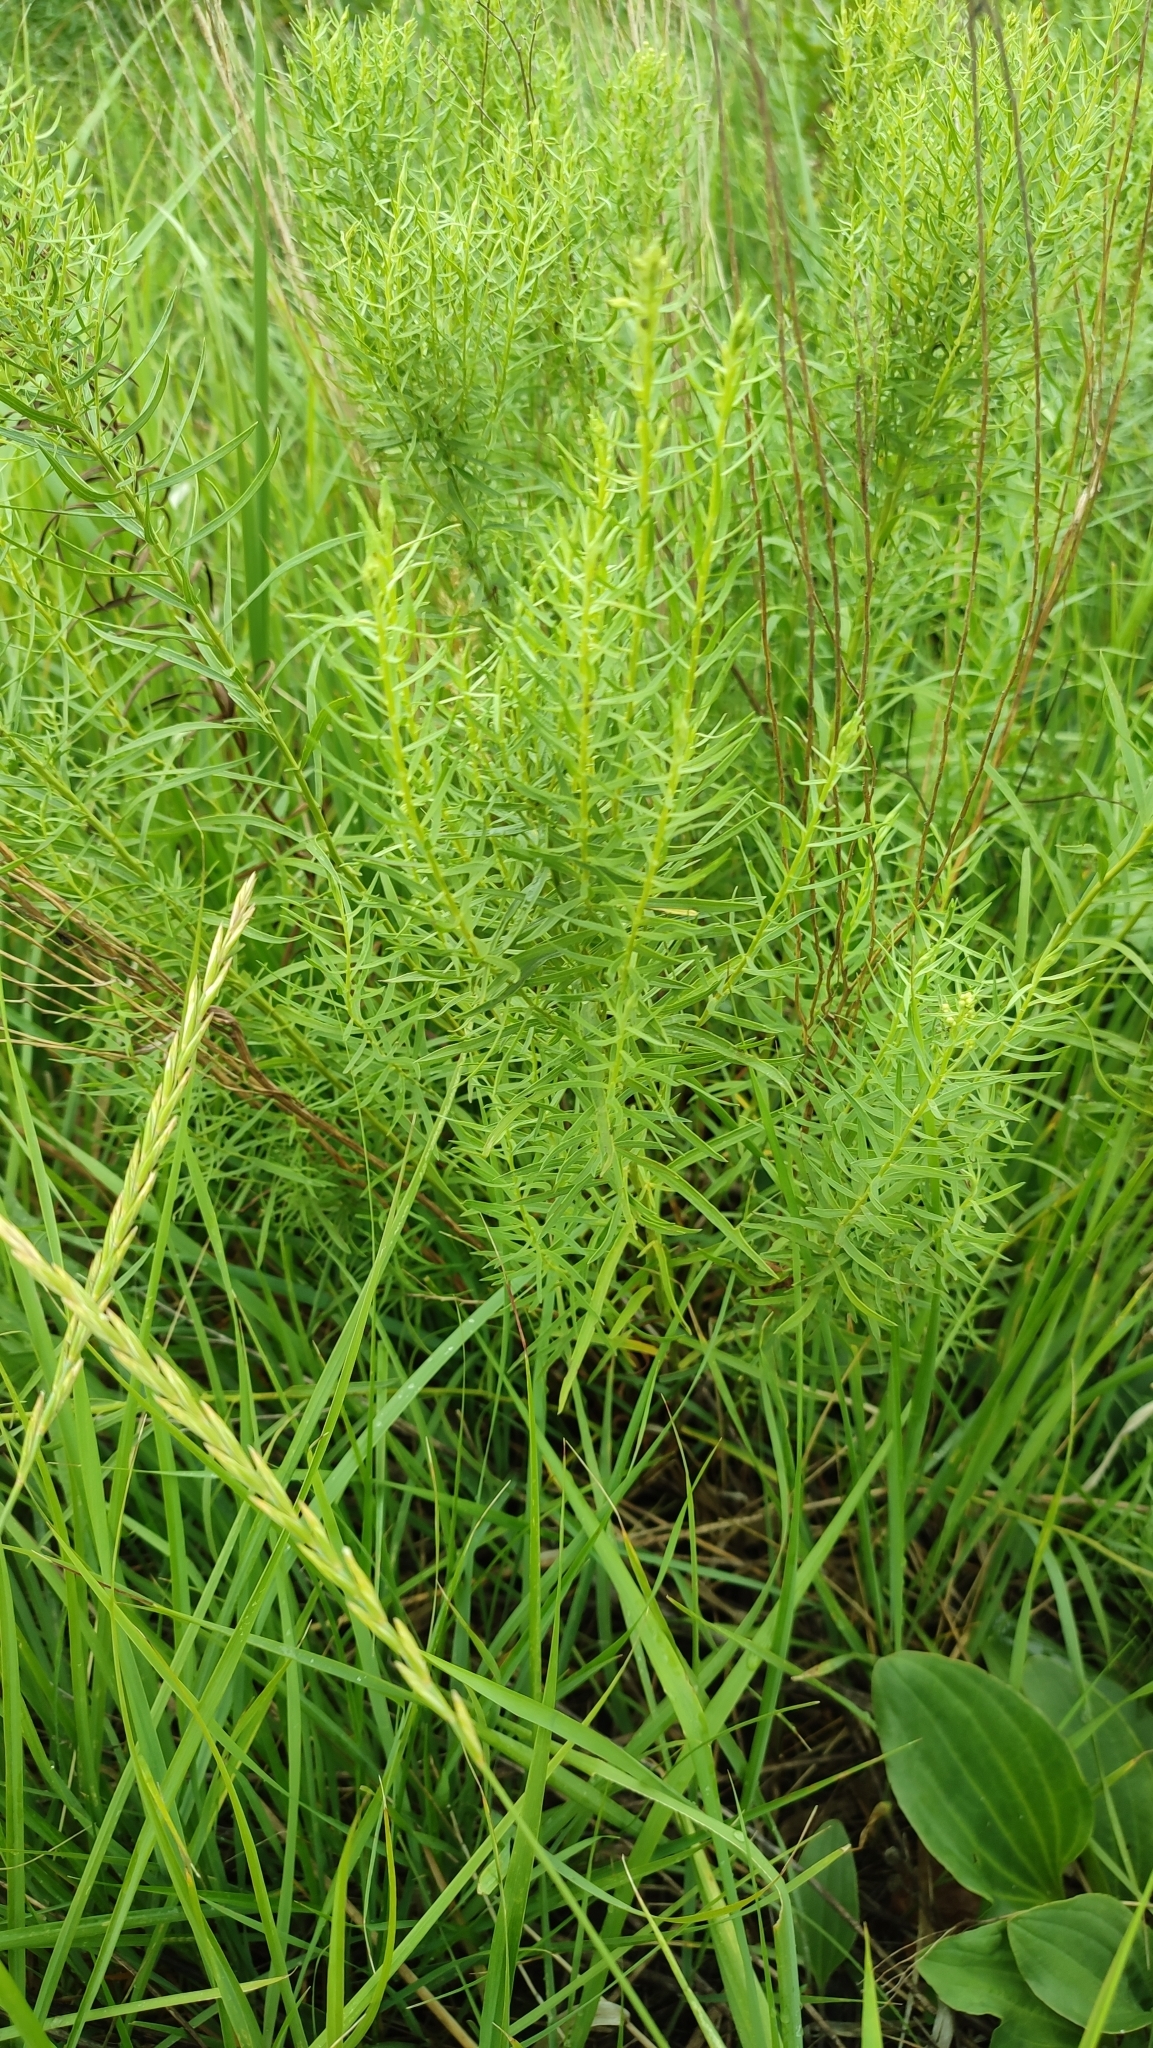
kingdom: Plantae
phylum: Tracheophyta
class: Magnoliopsida
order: Asterales
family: Asteraceae
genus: Galatella
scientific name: Galatella biflora
